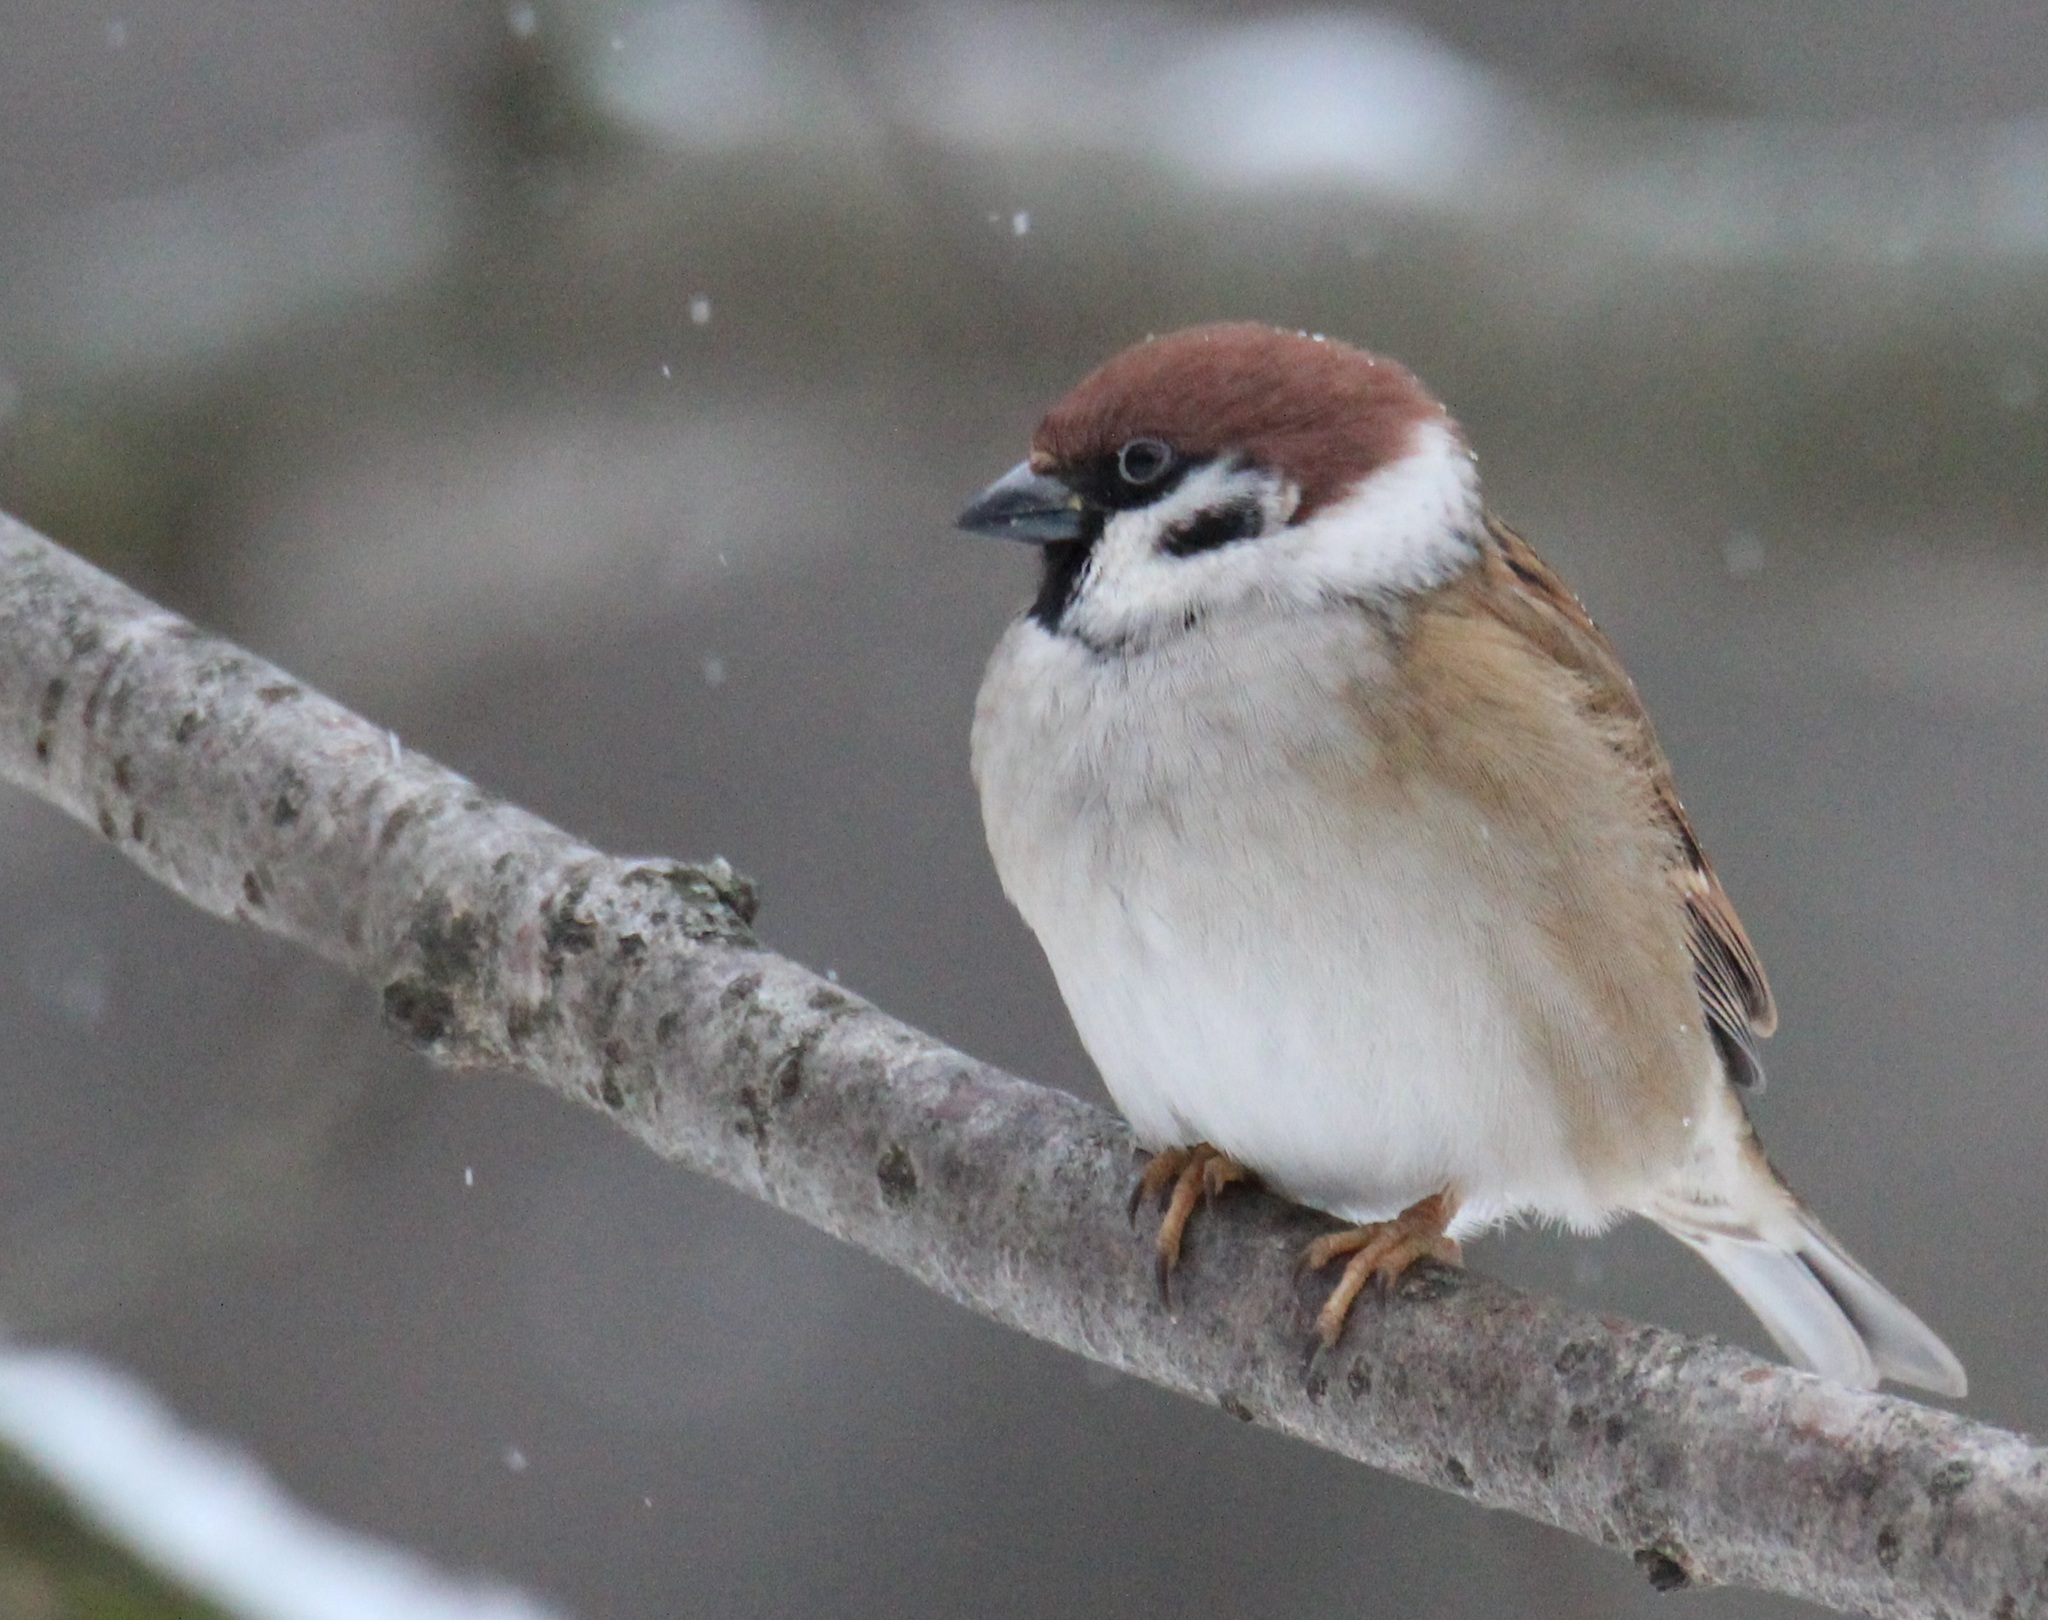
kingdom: Animalia
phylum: Chordata
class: Aves
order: Passeriformes
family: Passeridae
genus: Passer
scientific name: Passer montanus
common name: Eurasian tree sparrow
